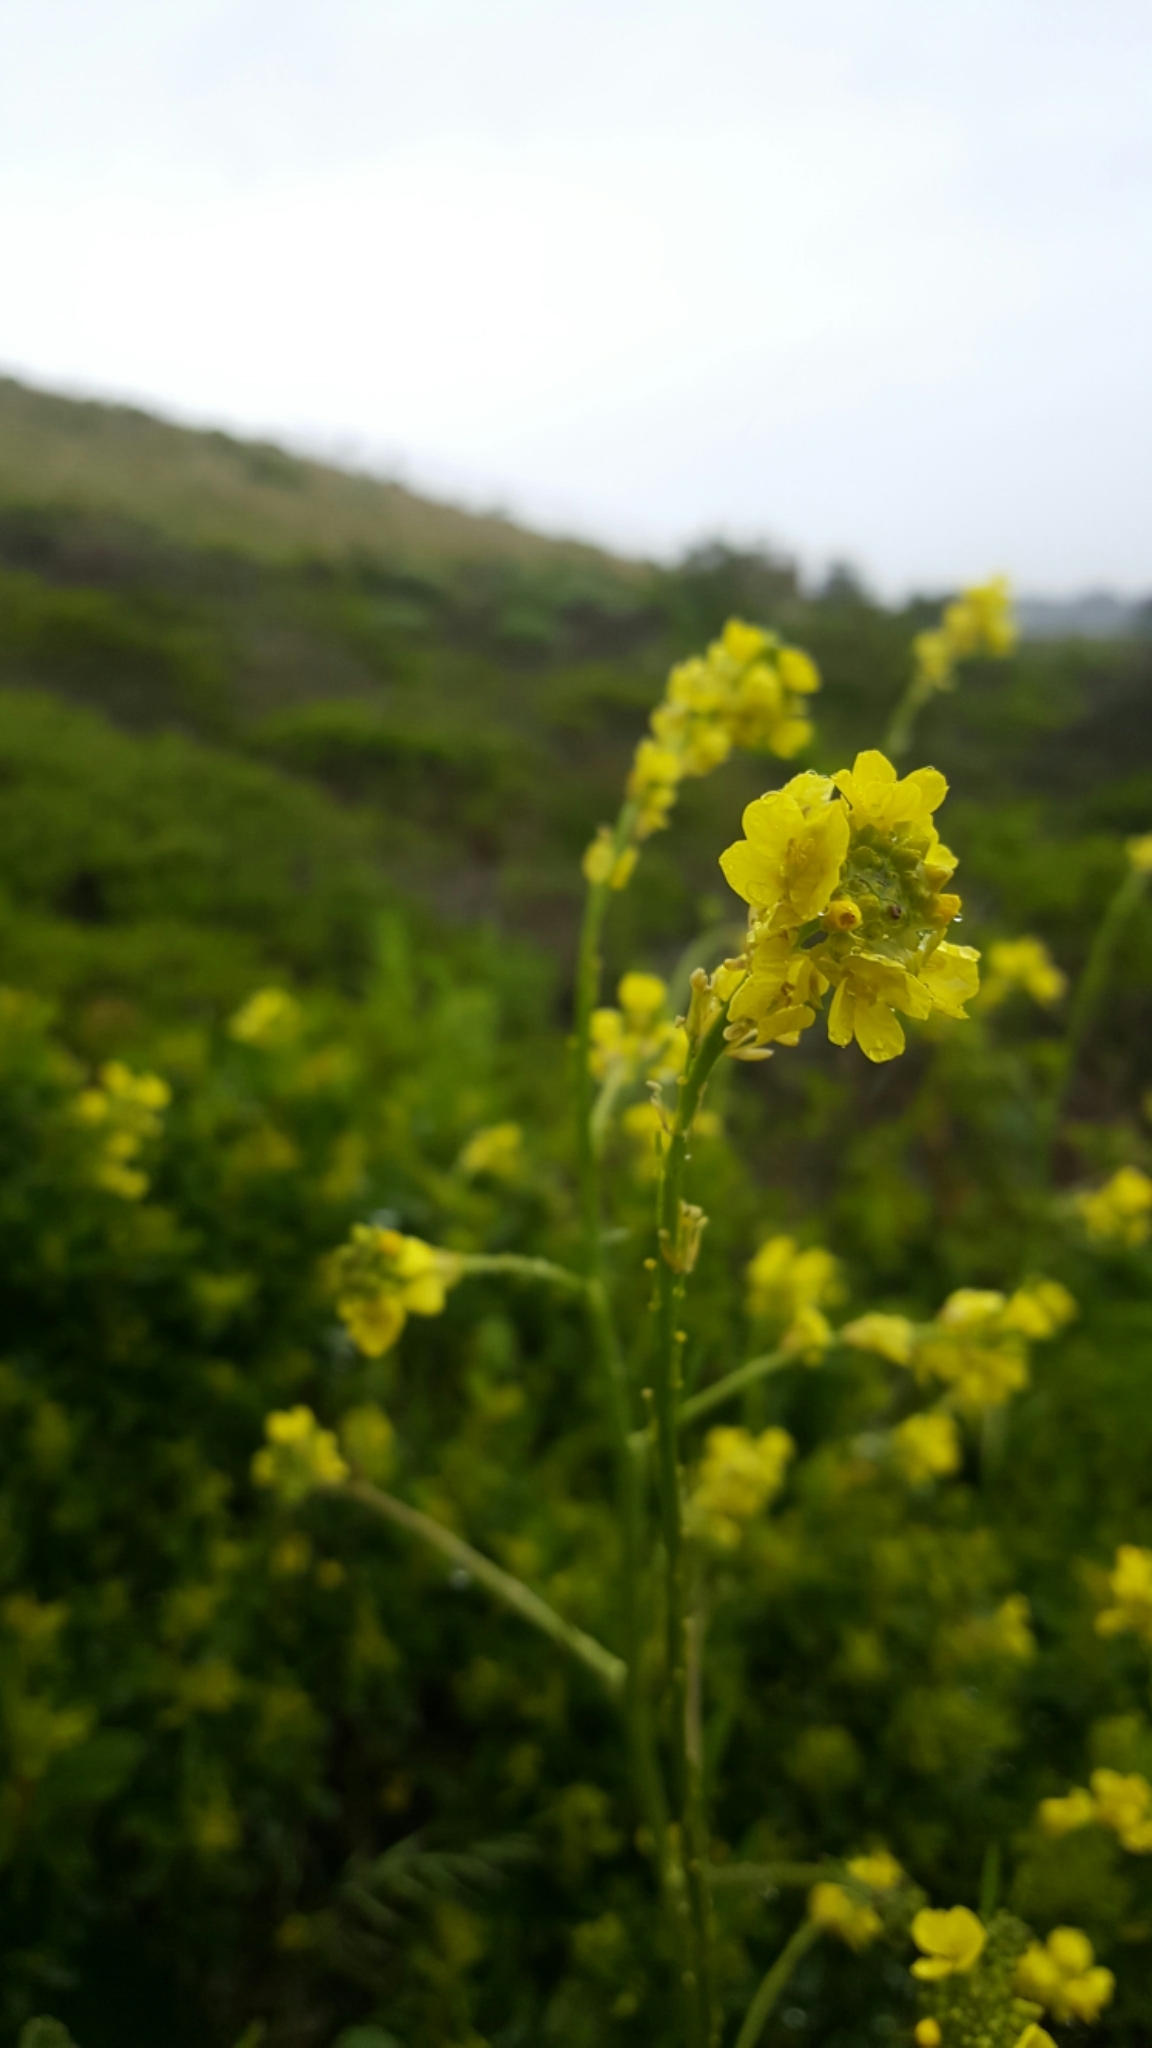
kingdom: Plantae
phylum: Tracheophyta
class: Magnoliopsida
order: Brassicales
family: Brassicaceae
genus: Hirschfeldia
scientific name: Hirschfeldia incana
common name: Hoary mustard
